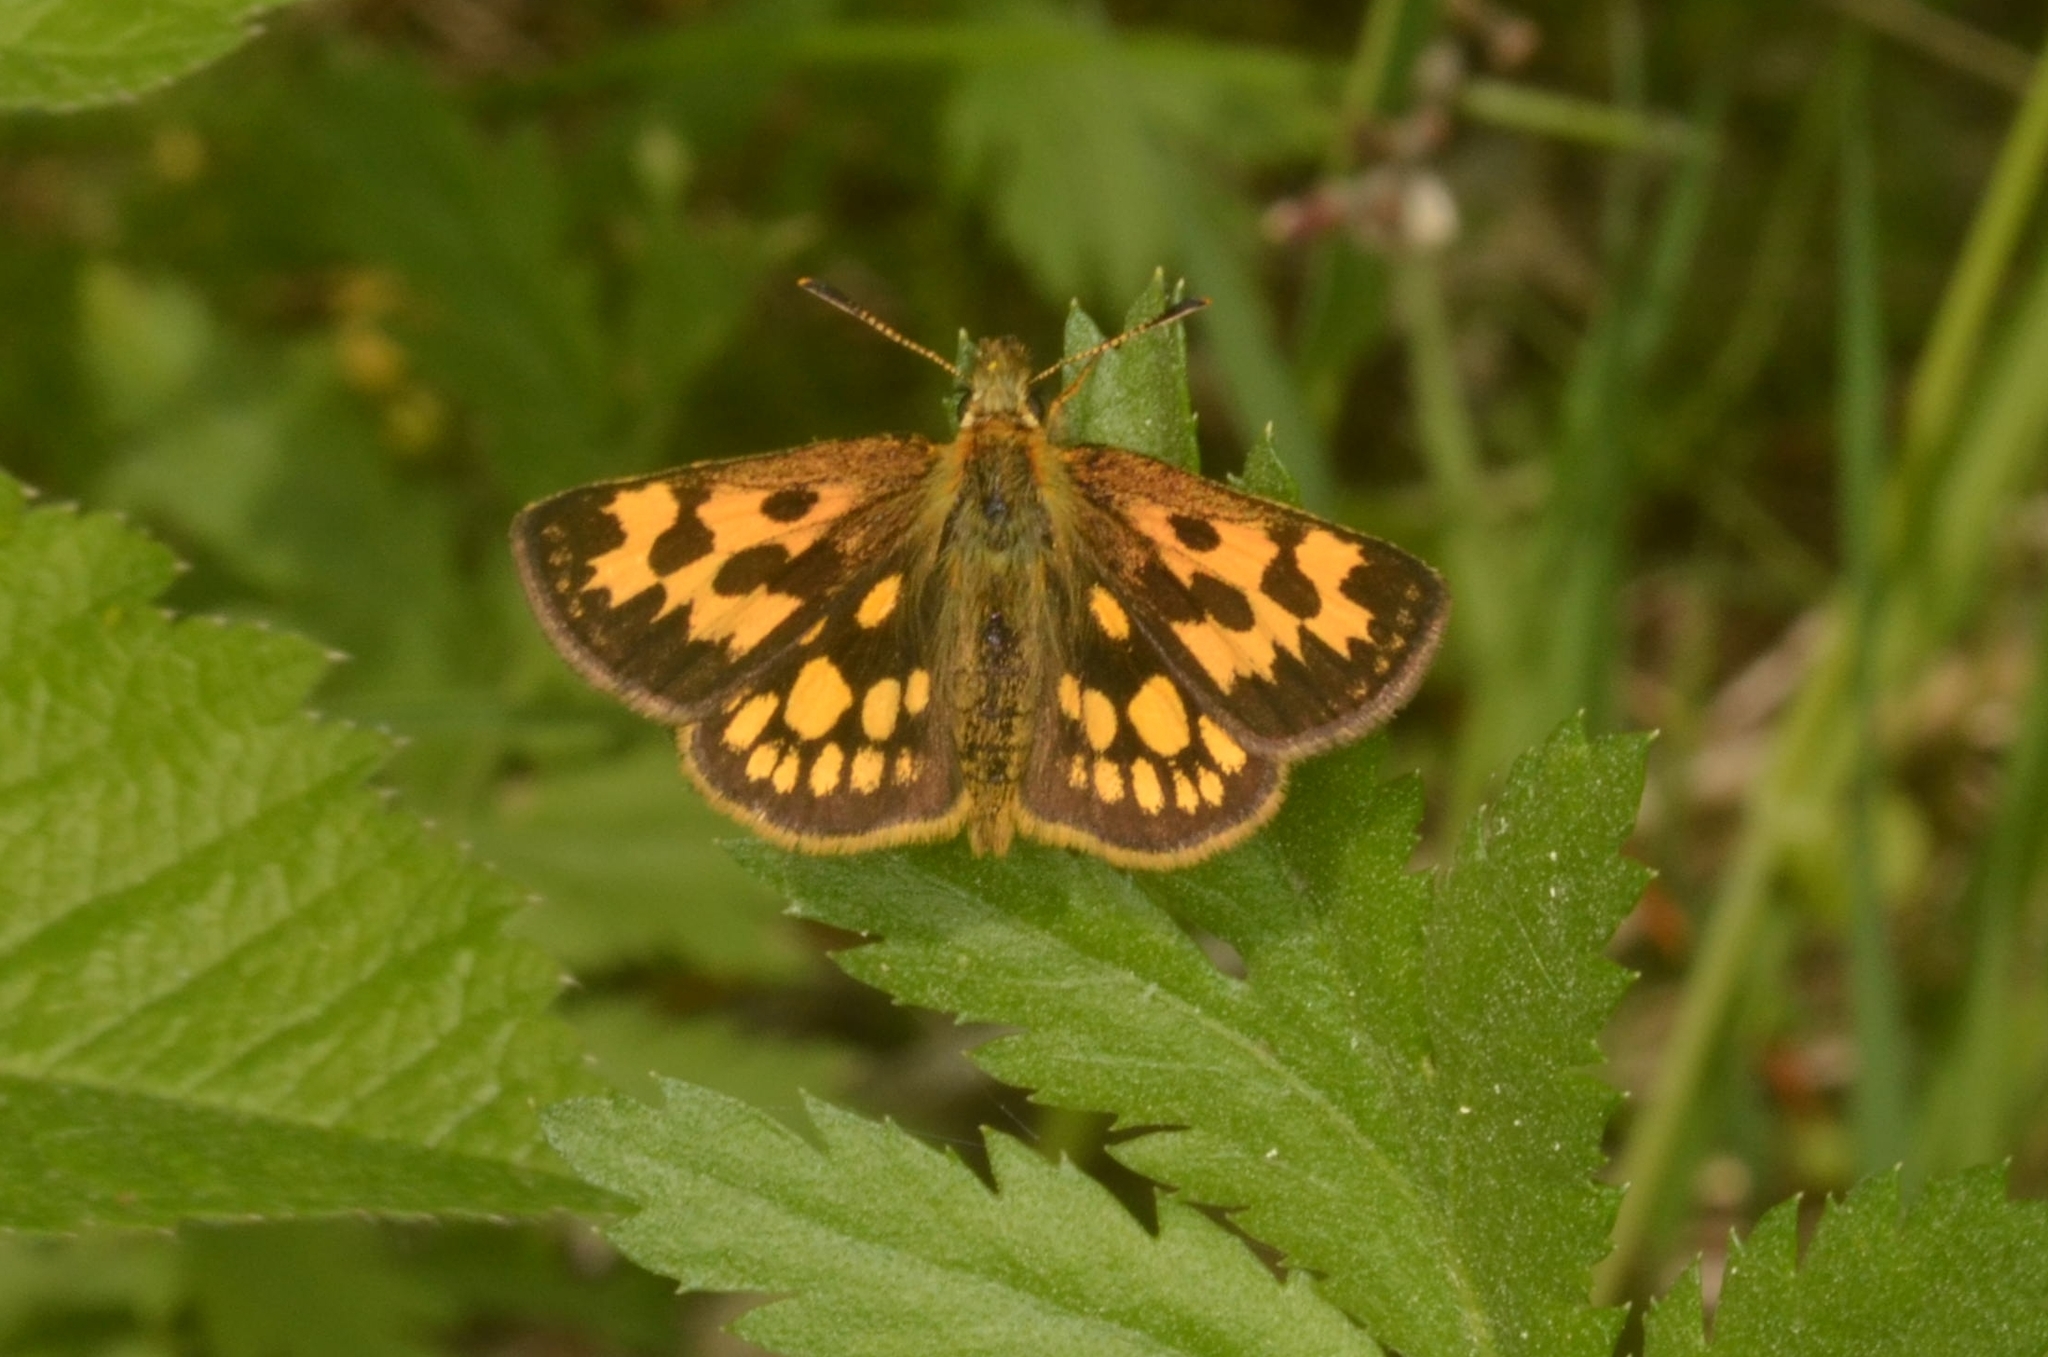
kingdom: Animalia
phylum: Arthropoda
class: Insecta
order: Lepidoptera
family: Hesperiidae
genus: Carterocephalus
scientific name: Carterocephalus silvicola
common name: Northern chequered skipper
